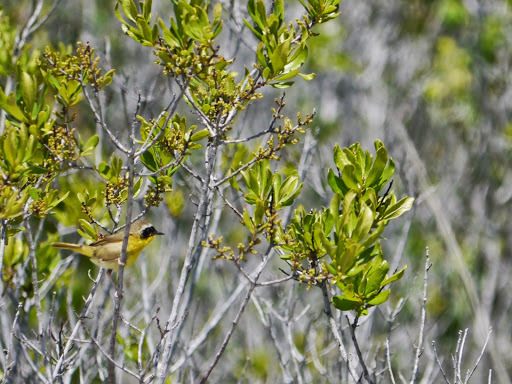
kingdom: Animalia
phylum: Chordata
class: Aves
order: Passeriformes
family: Parulidae
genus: Geothlypis
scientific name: Geothlypis trichas
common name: Common yellowthroat
